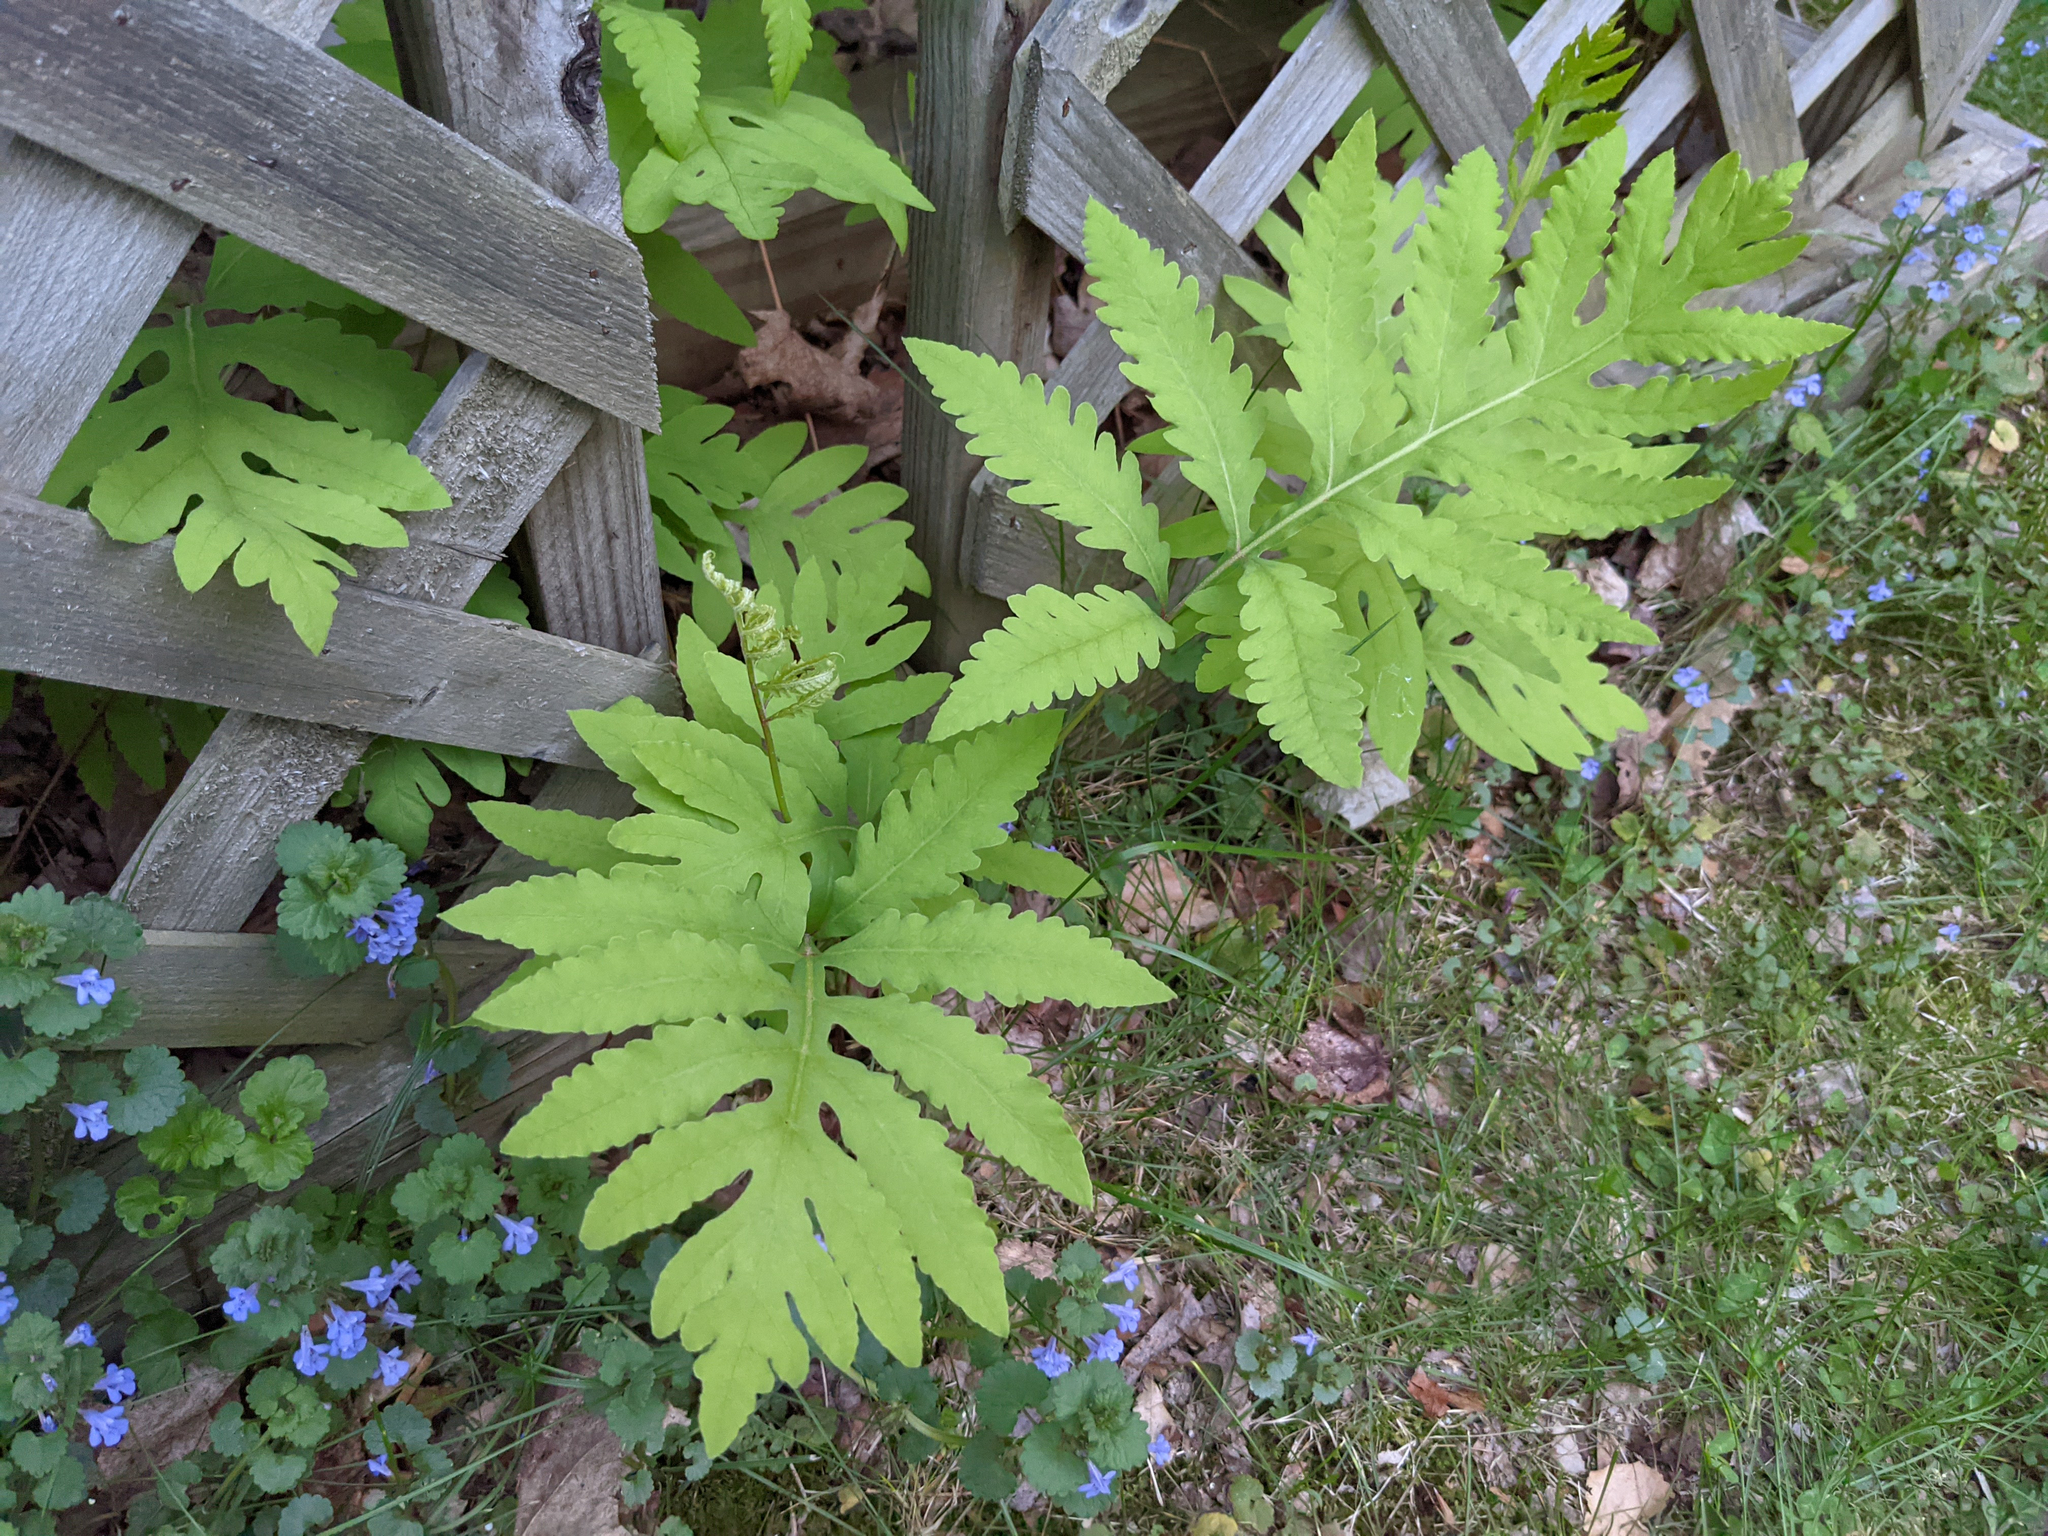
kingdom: Plantae
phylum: Tracheophyta
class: Polypodiopsida
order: Polypodiales
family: Onocleaceae
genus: Onoclea
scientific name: Onoclea sensibilis
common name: Sensitive fern
